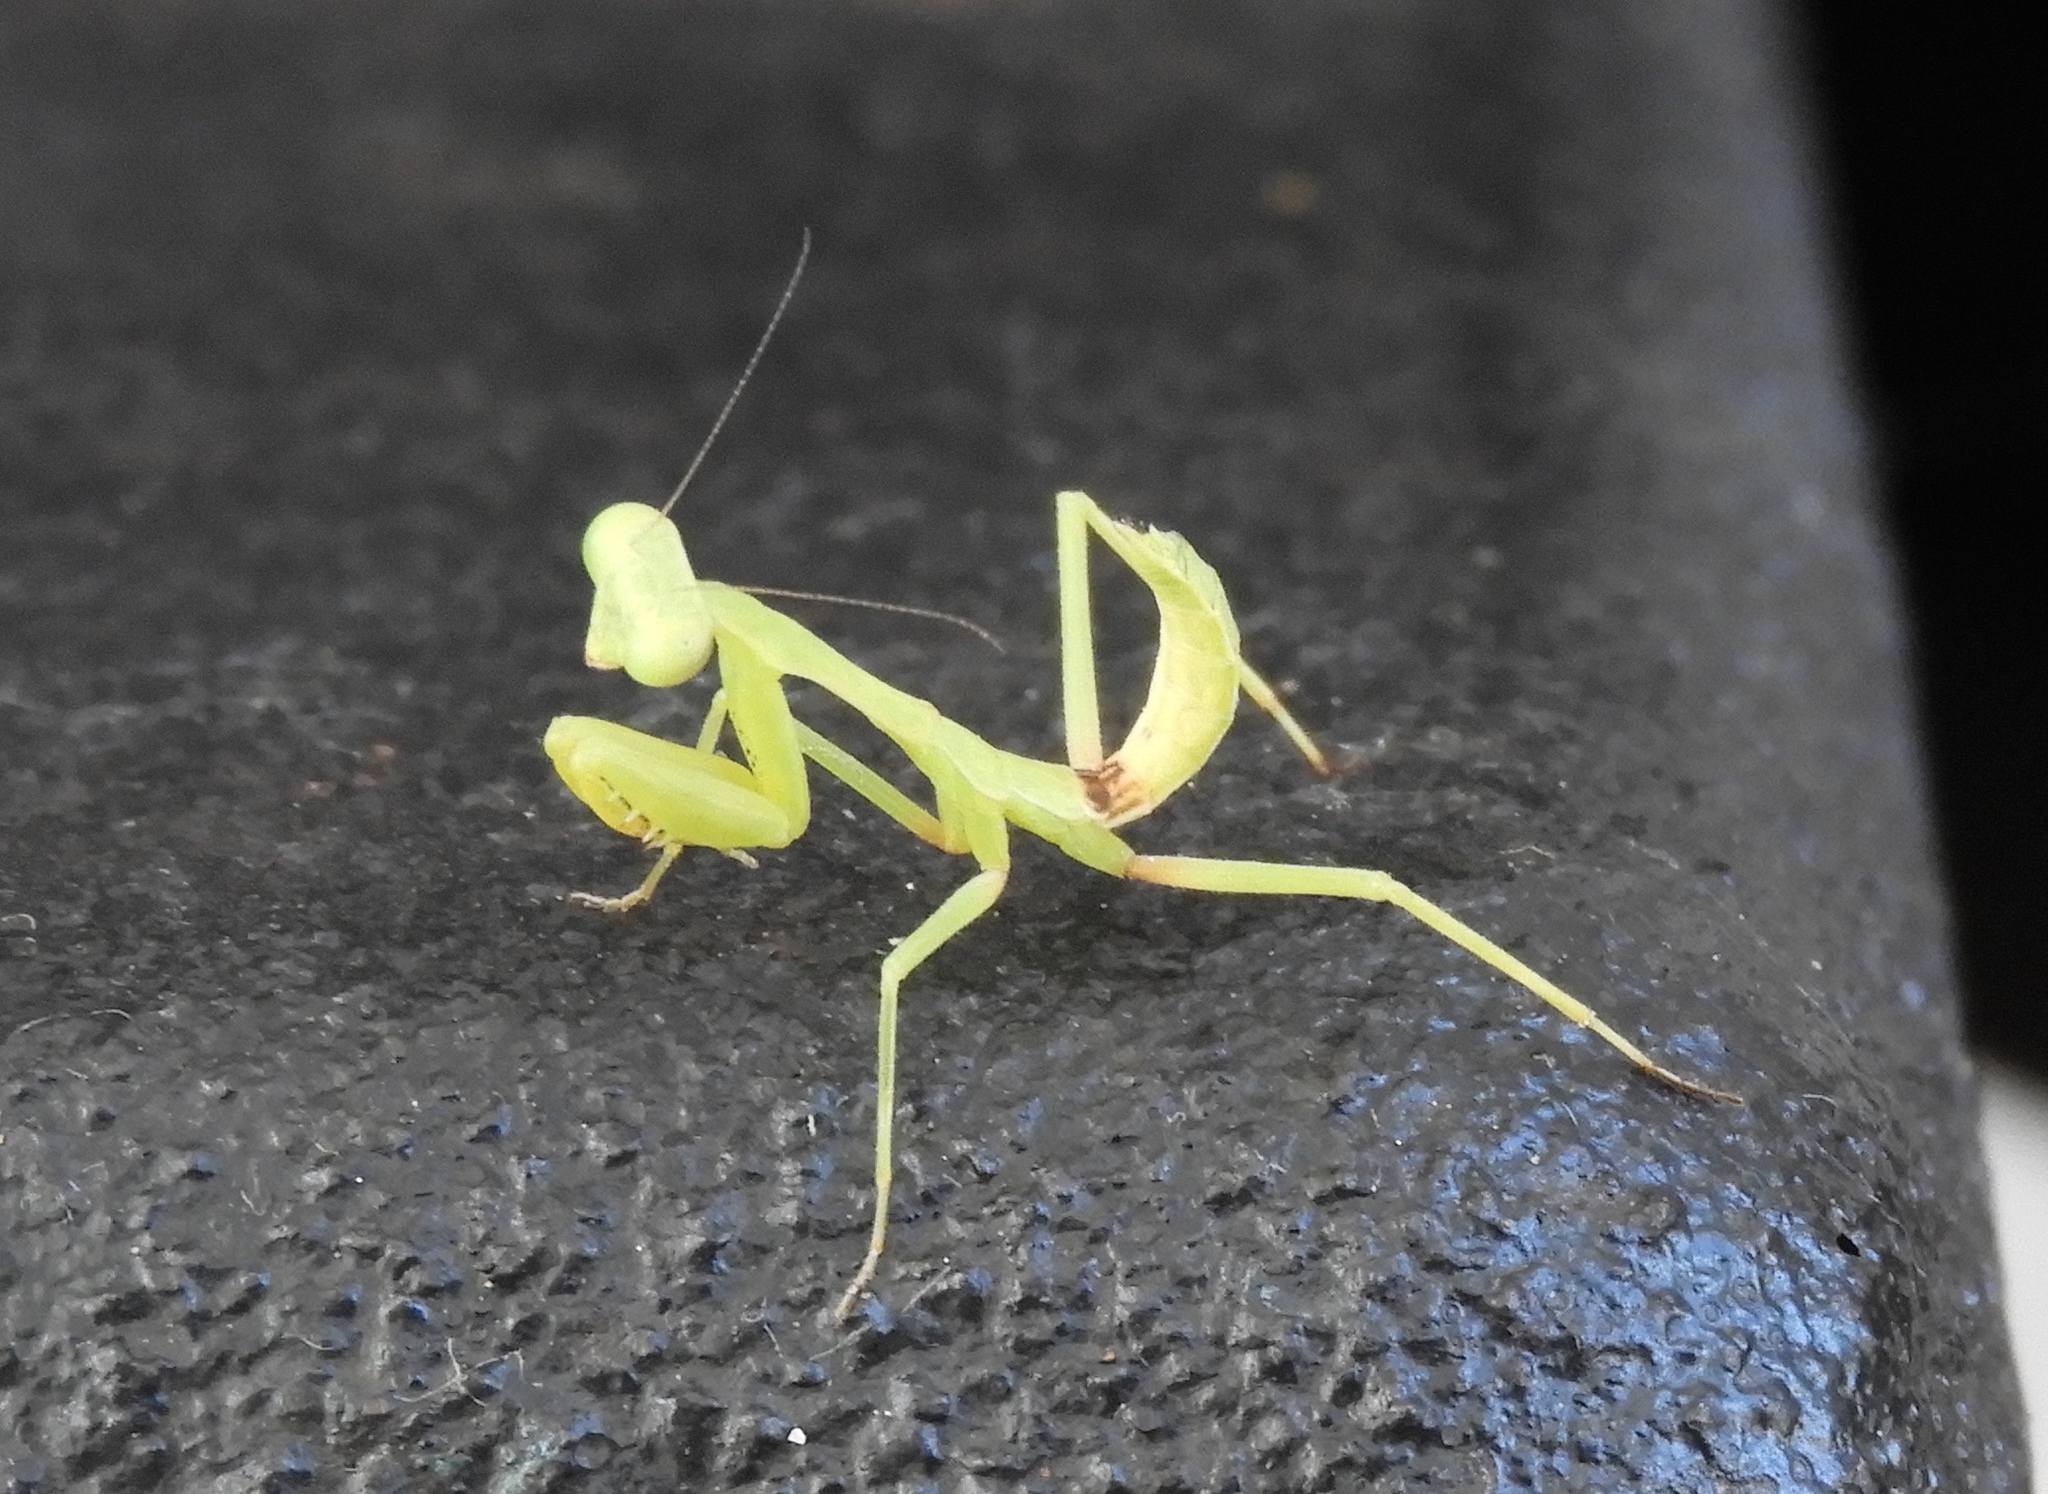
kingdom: Animalia
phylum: Arthropoda
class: Insecta
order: Mantodea
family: Mantidae
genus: Stagmomantis
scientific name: Stagmomantis
